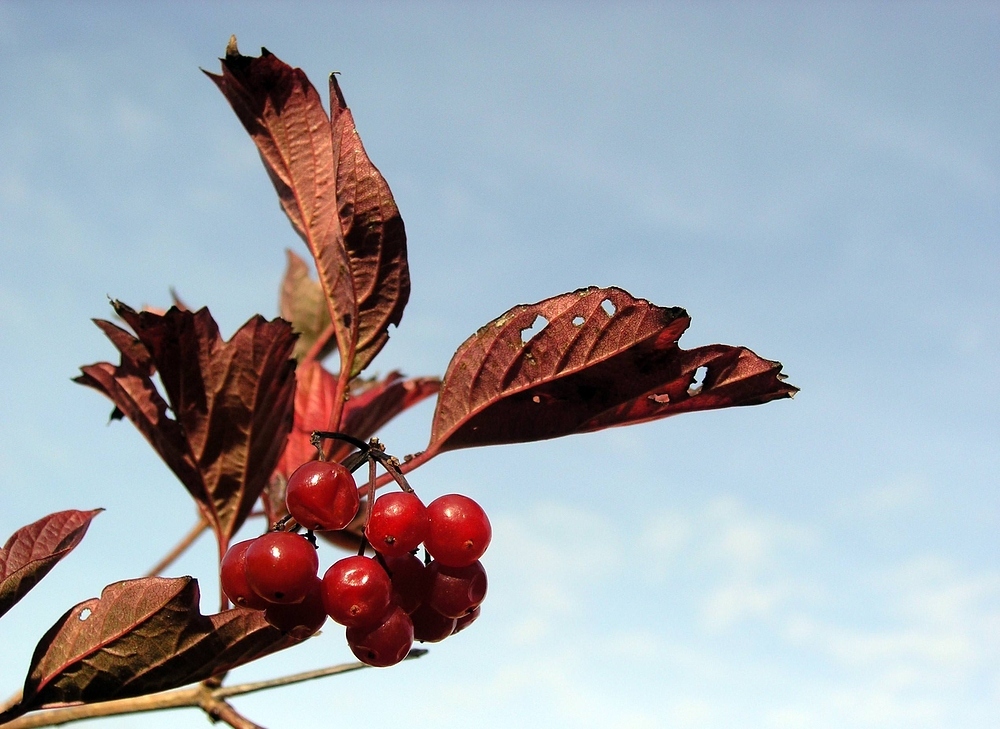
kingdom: Plantae
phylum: Tracheophyta
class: Magnoliopsida
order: Dipsacales
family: Viburnaceae
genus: Viburnum
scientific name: Viburnum opulus
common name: Guelder-rose
